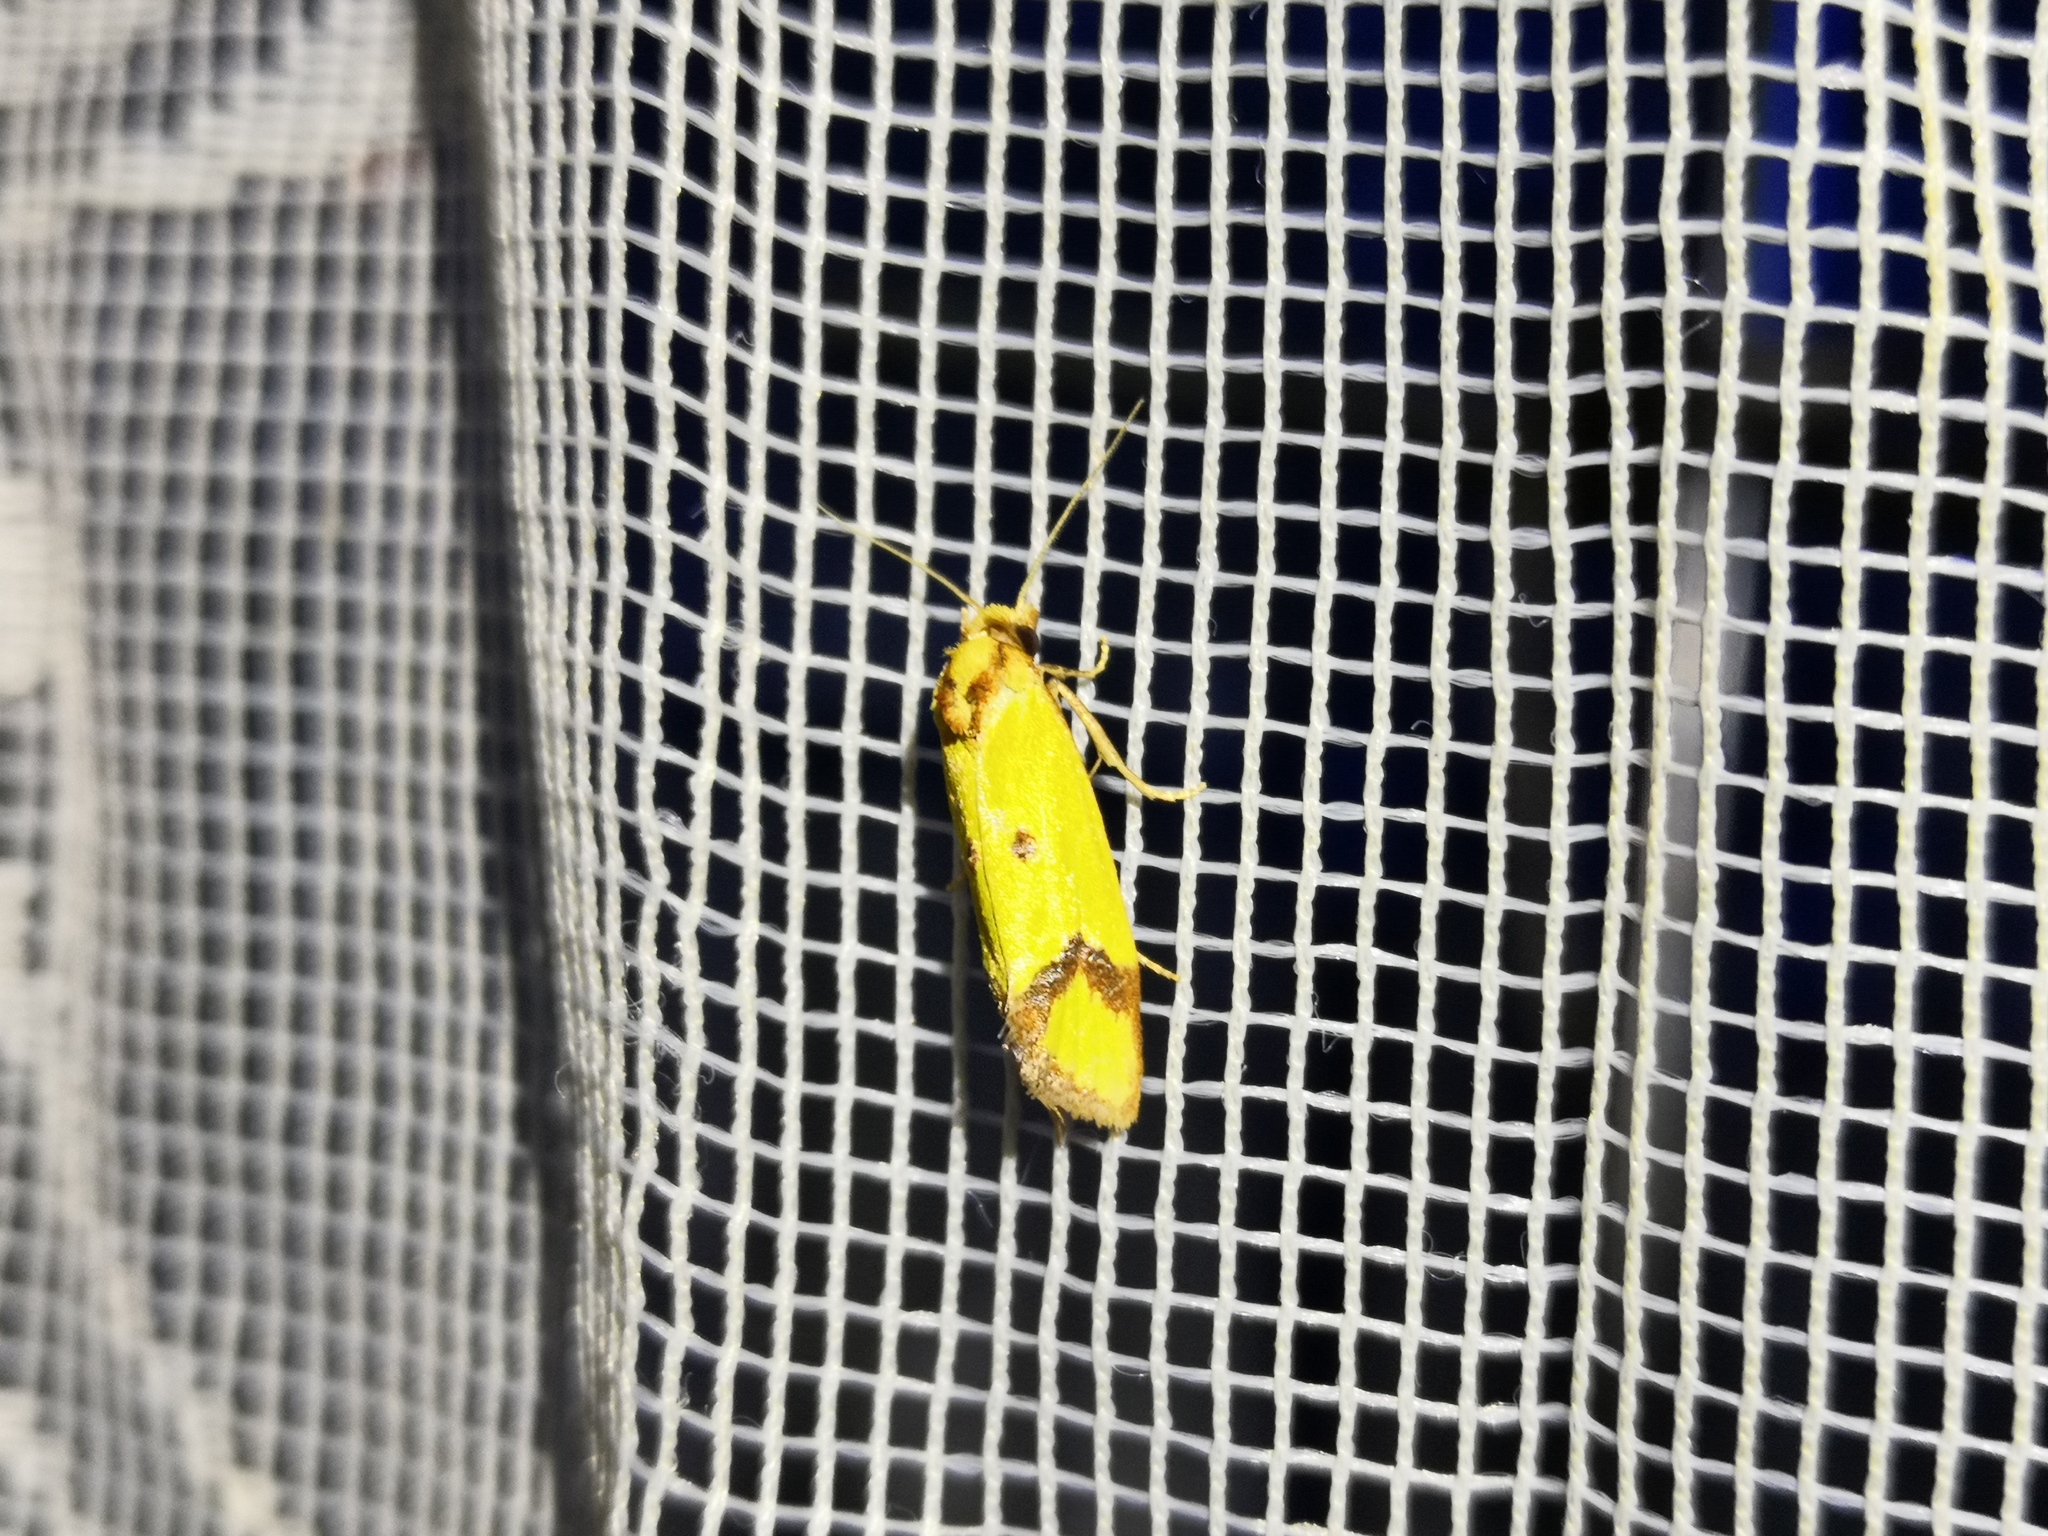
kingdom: Animalia
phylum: Arthropoda
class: Insecta
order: Lepidoptera
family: Tortricidae
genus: Agapeta
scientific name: Agapeta zoegana
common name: Sulfur knapweed root moth
